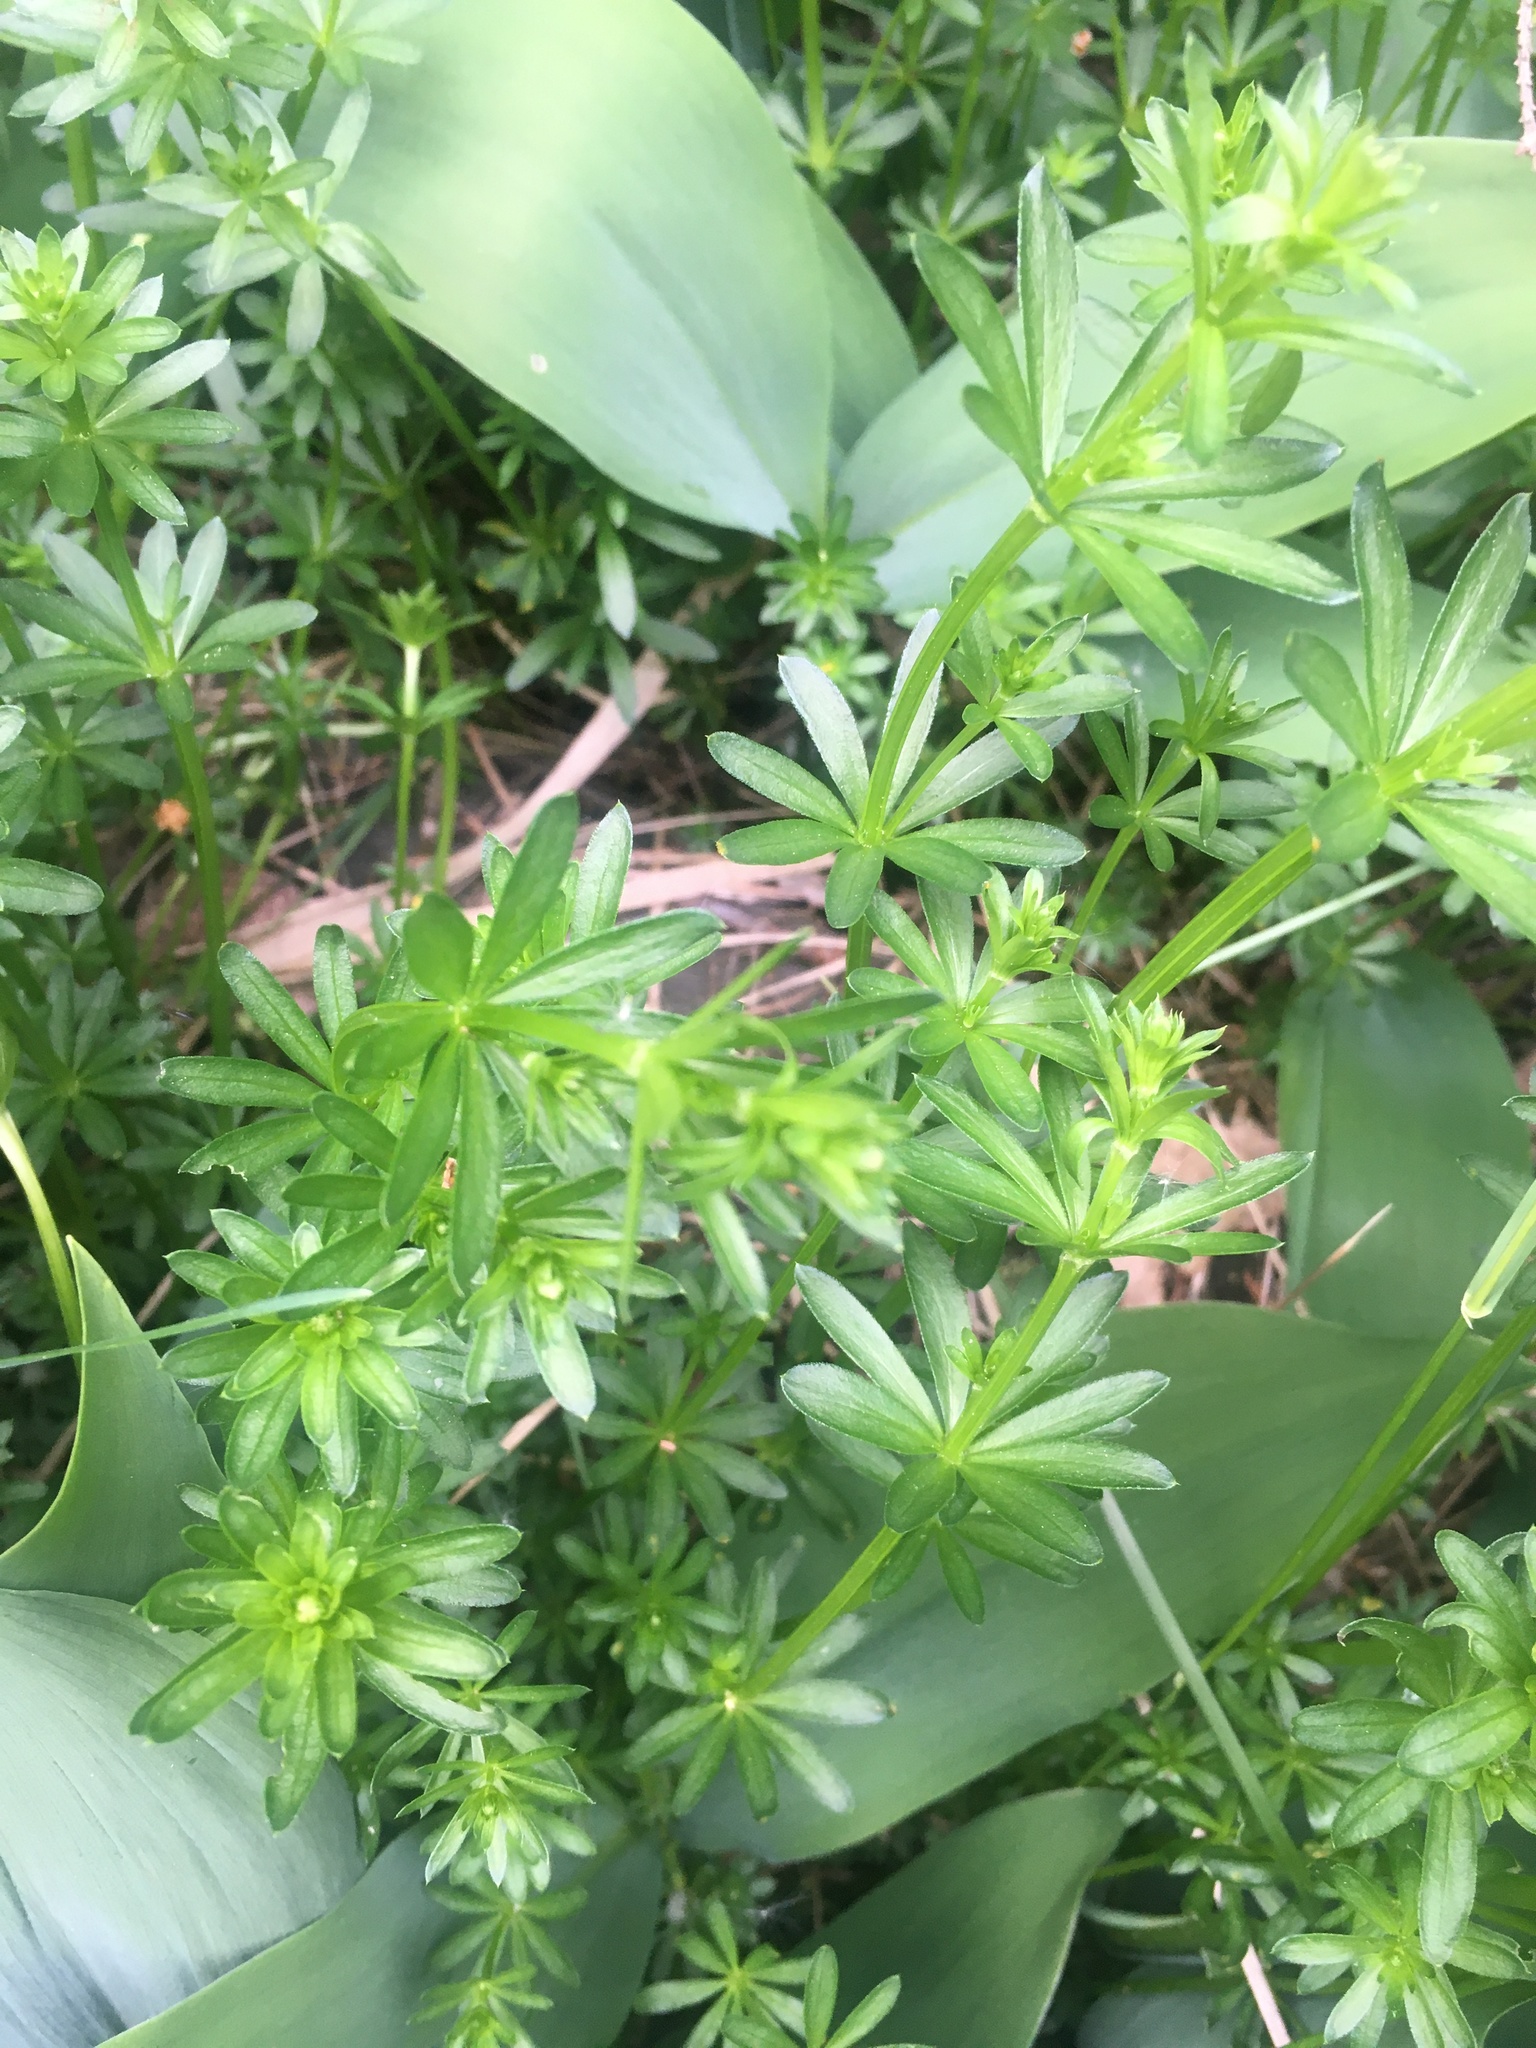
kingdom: Plantae
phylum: Tracheophyta
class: Magnoliopsida
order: Gentianales
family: Rubiaceae
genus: Galium
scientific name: Galium mollugo
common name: Hedge bedstraw
